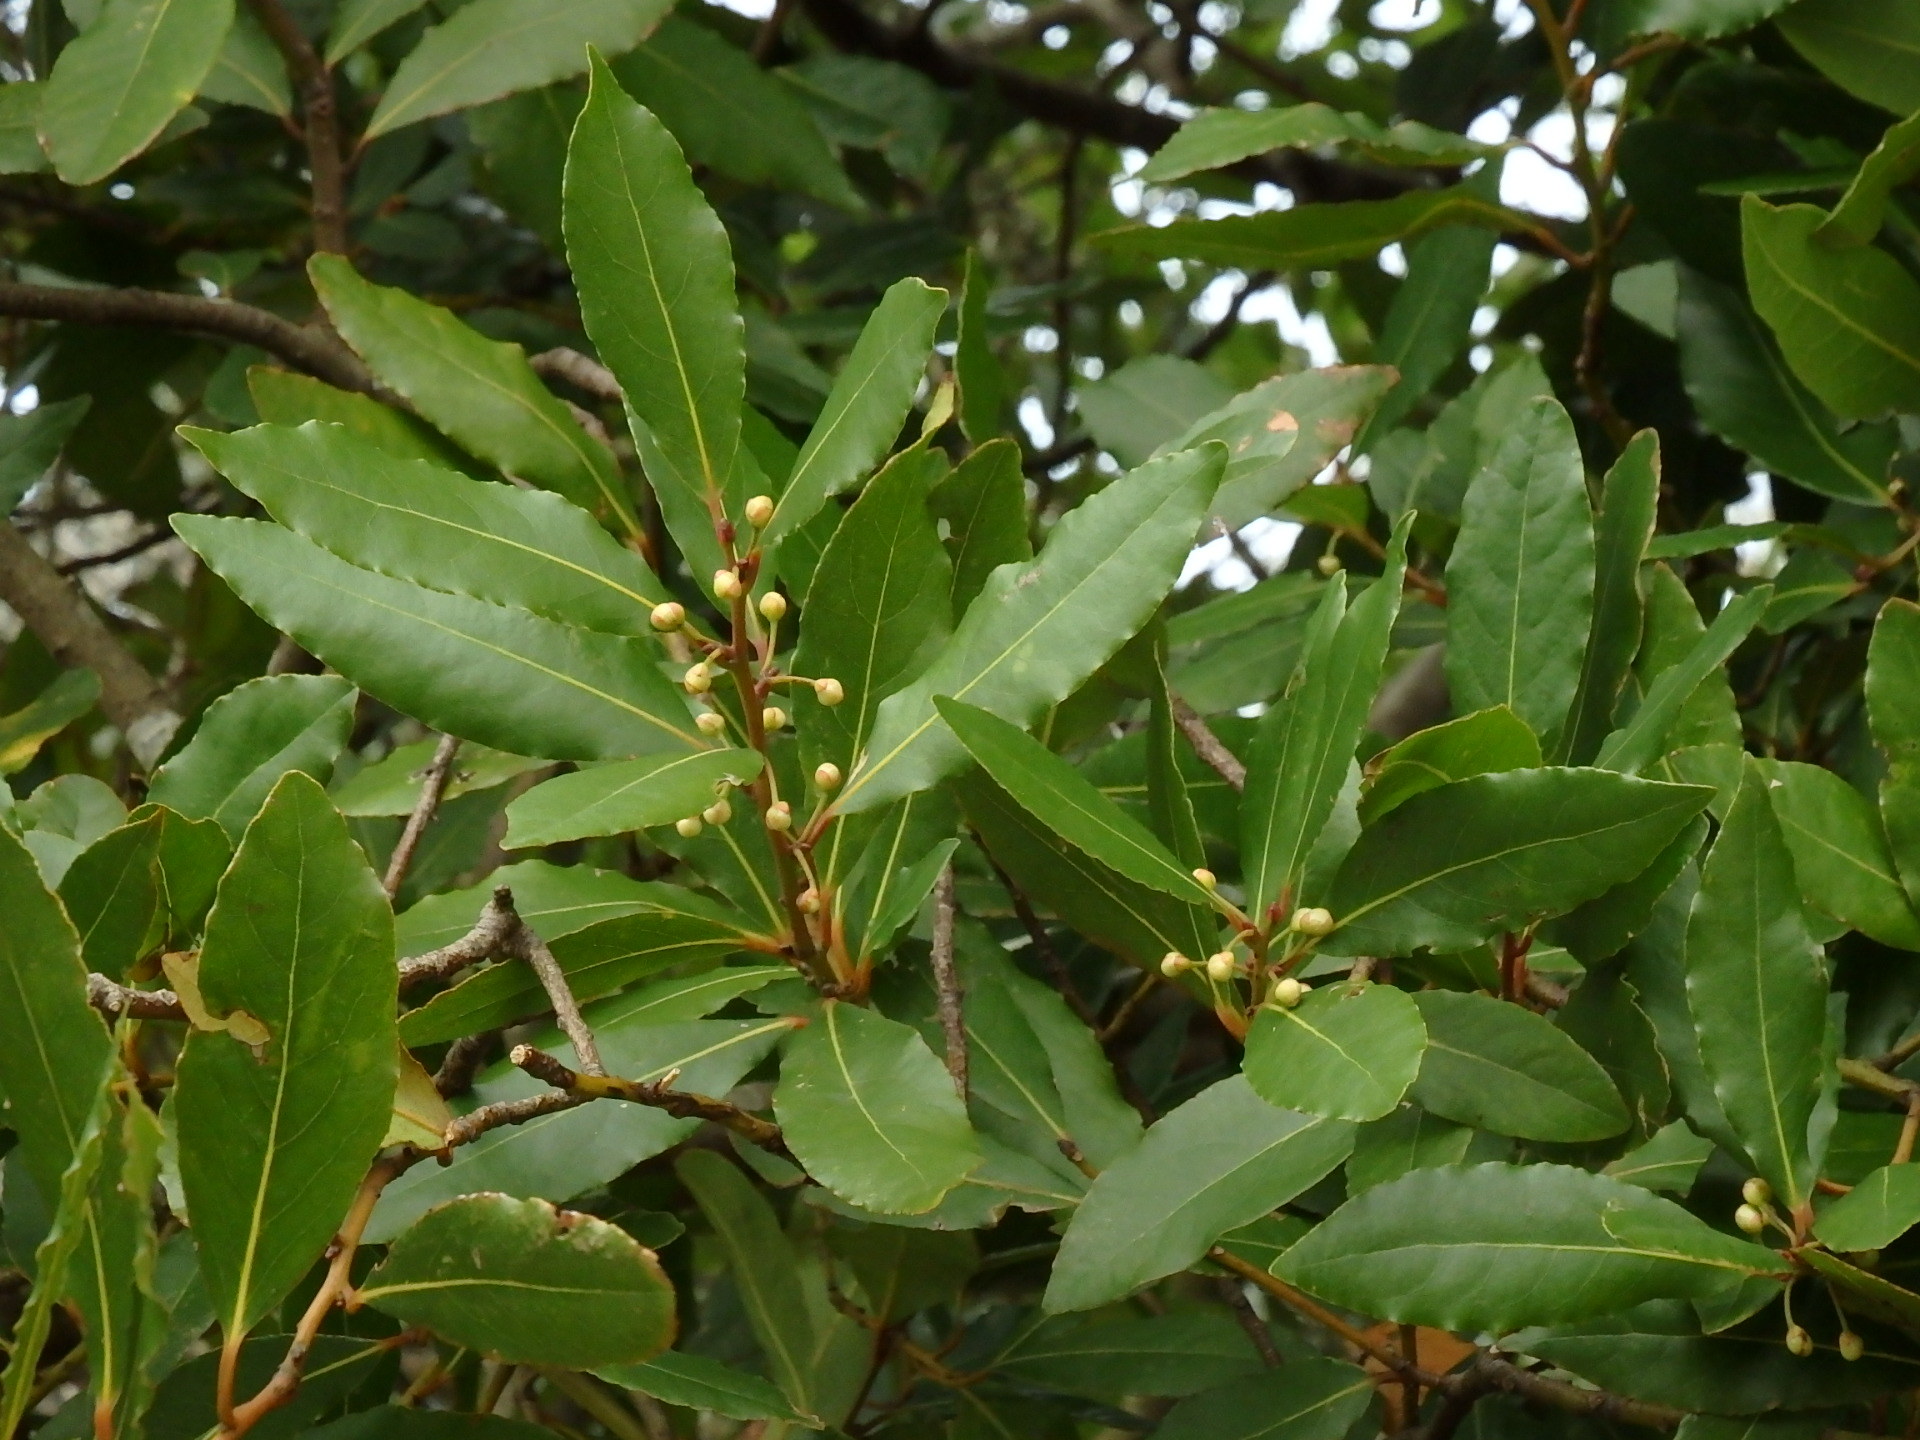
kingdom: Plantae
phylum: Tracheophyta
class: Magnoliopsida
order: Laurales
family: Lauraceae
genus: Laurus
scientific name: Laurus nobilis
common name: Bay
